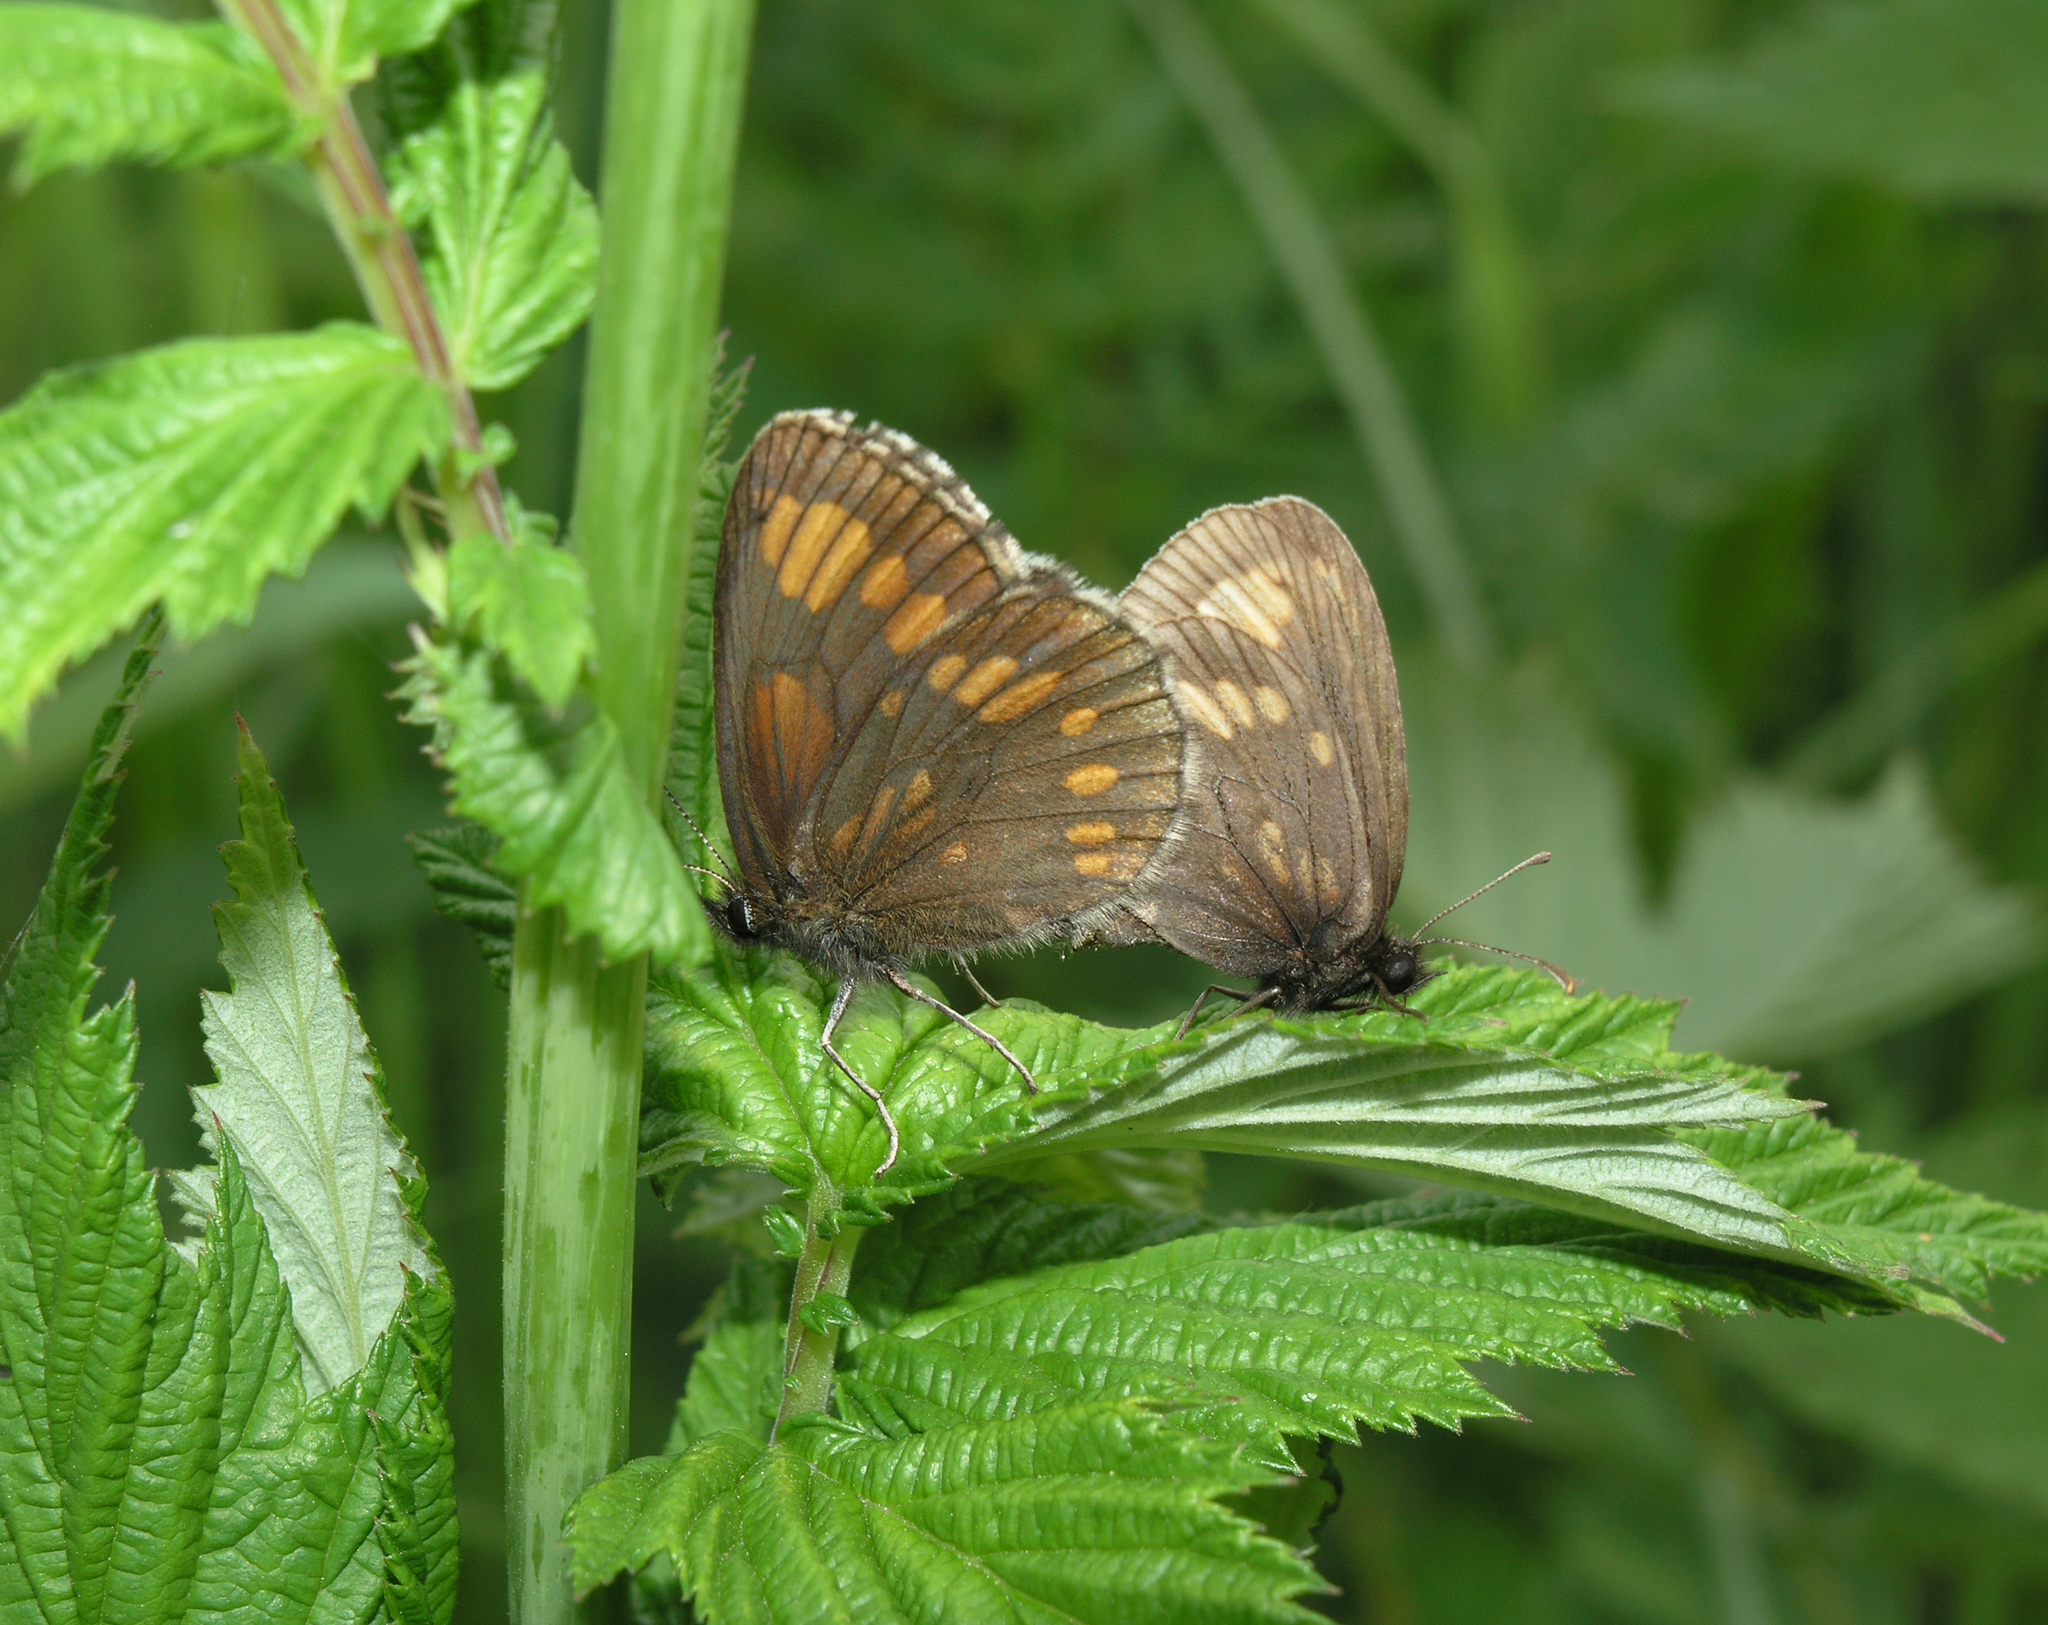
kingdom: Animalia
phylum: Arthropoda
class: Insecta
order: Lepidoptera
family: Nymphalidae
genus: Erebia
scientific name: Erebia maurisius
